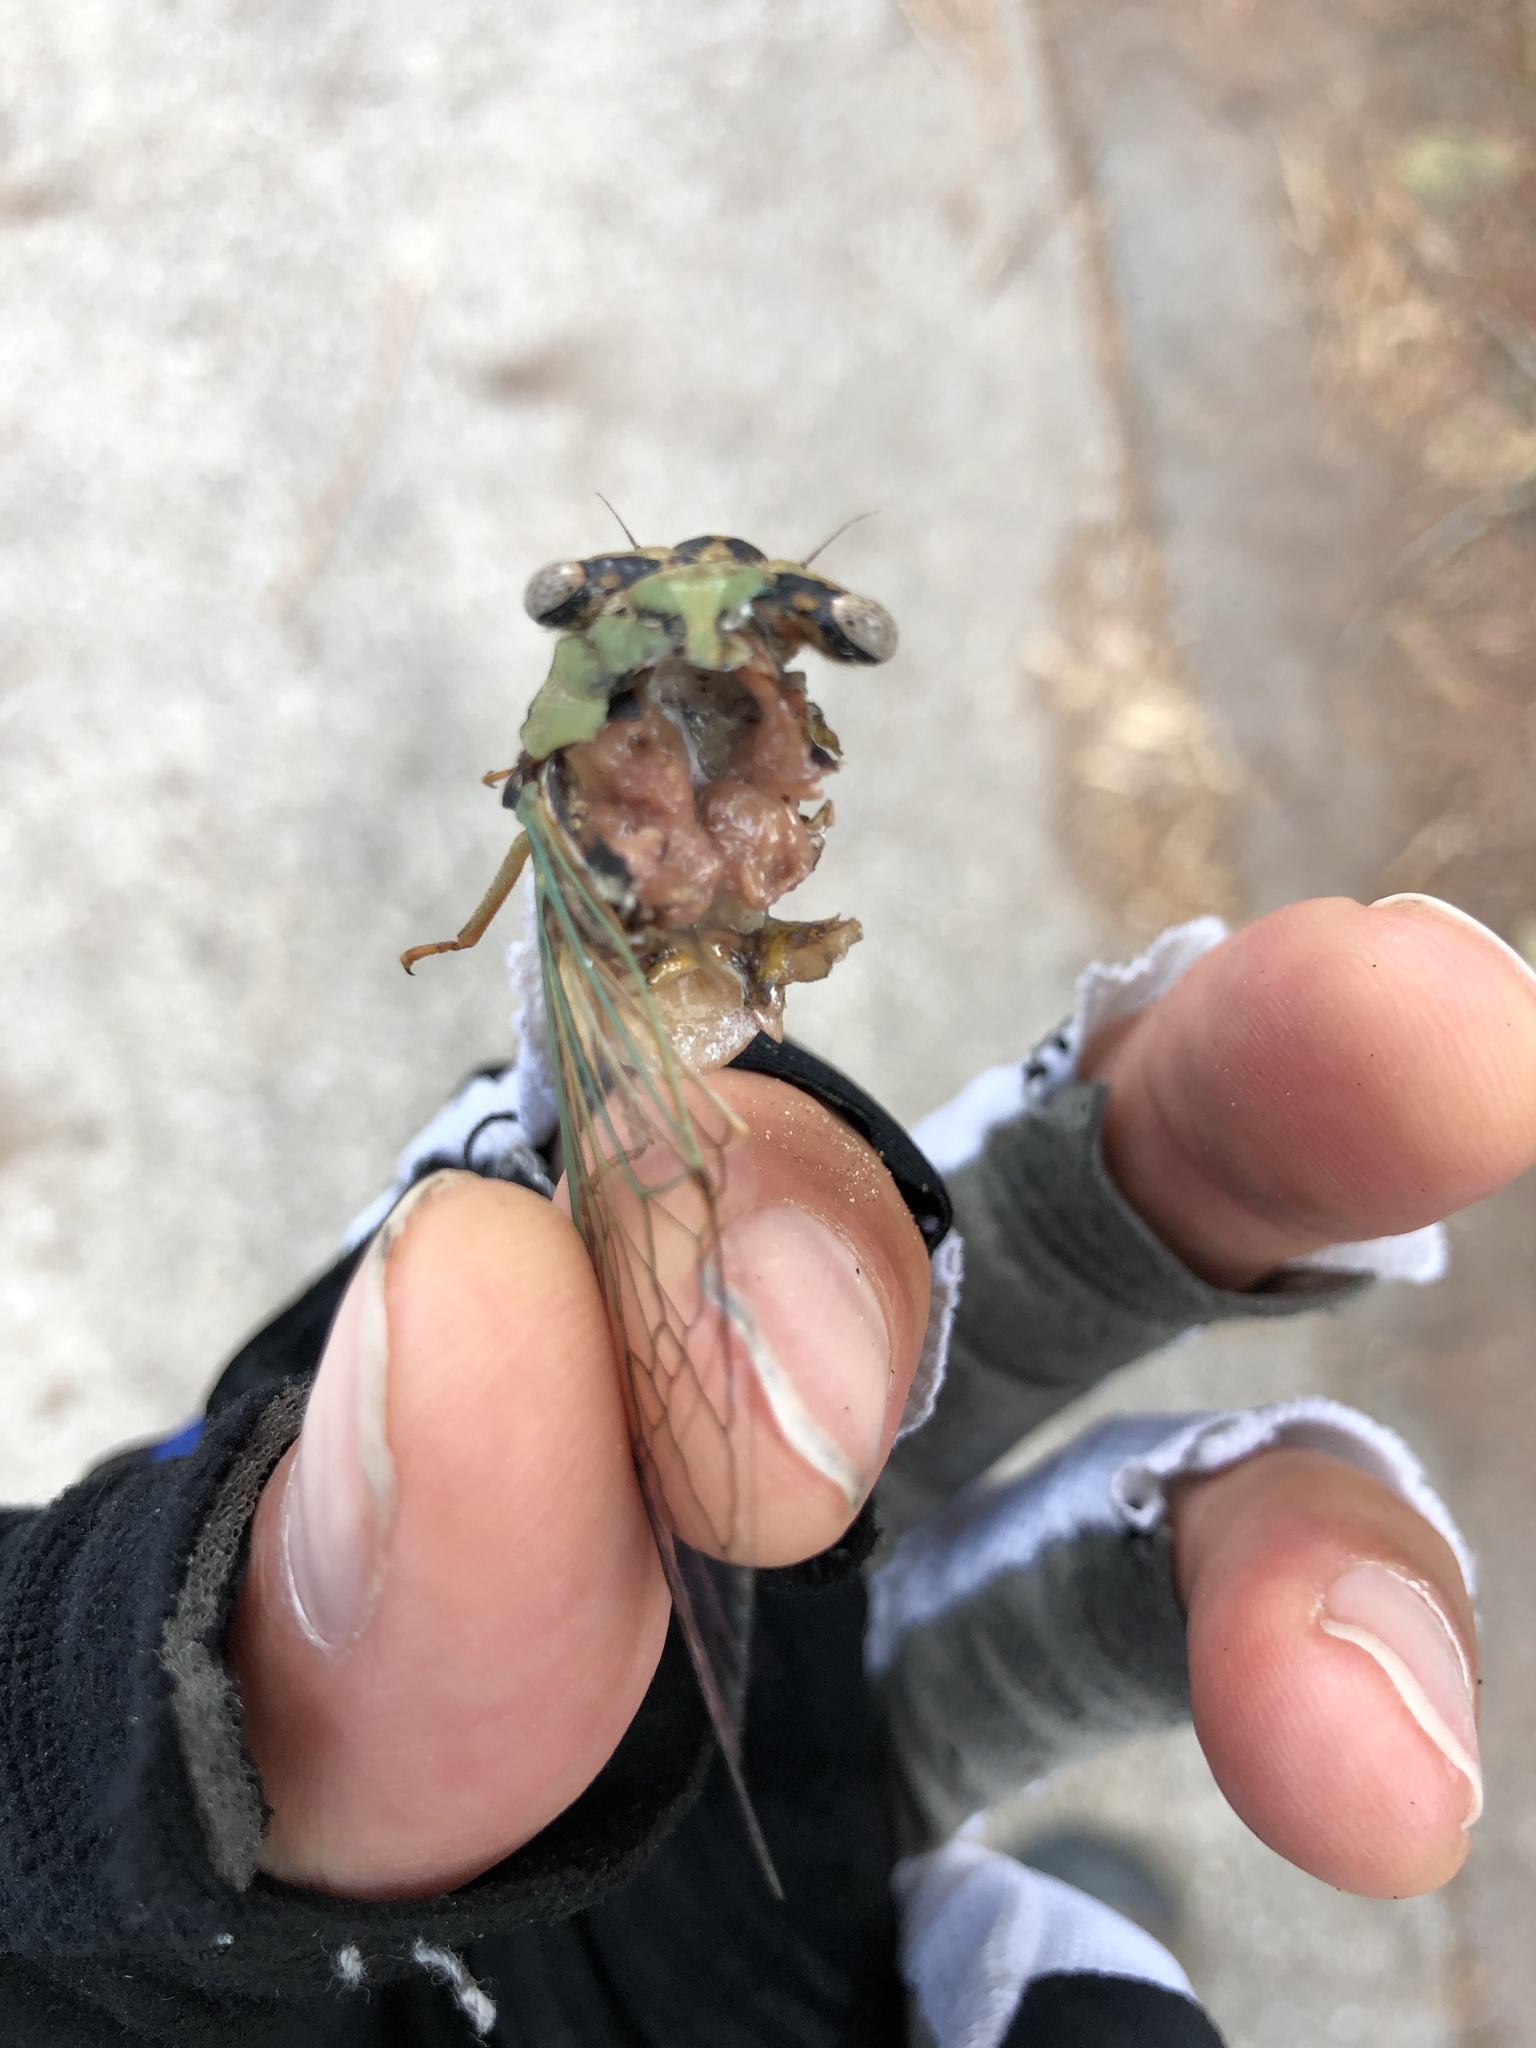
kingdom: Animalia
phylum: Arthropoda
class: Insecta
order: Hemiptera
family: Cicadidae
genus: Megatibicen
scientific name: Megatibicen resh
